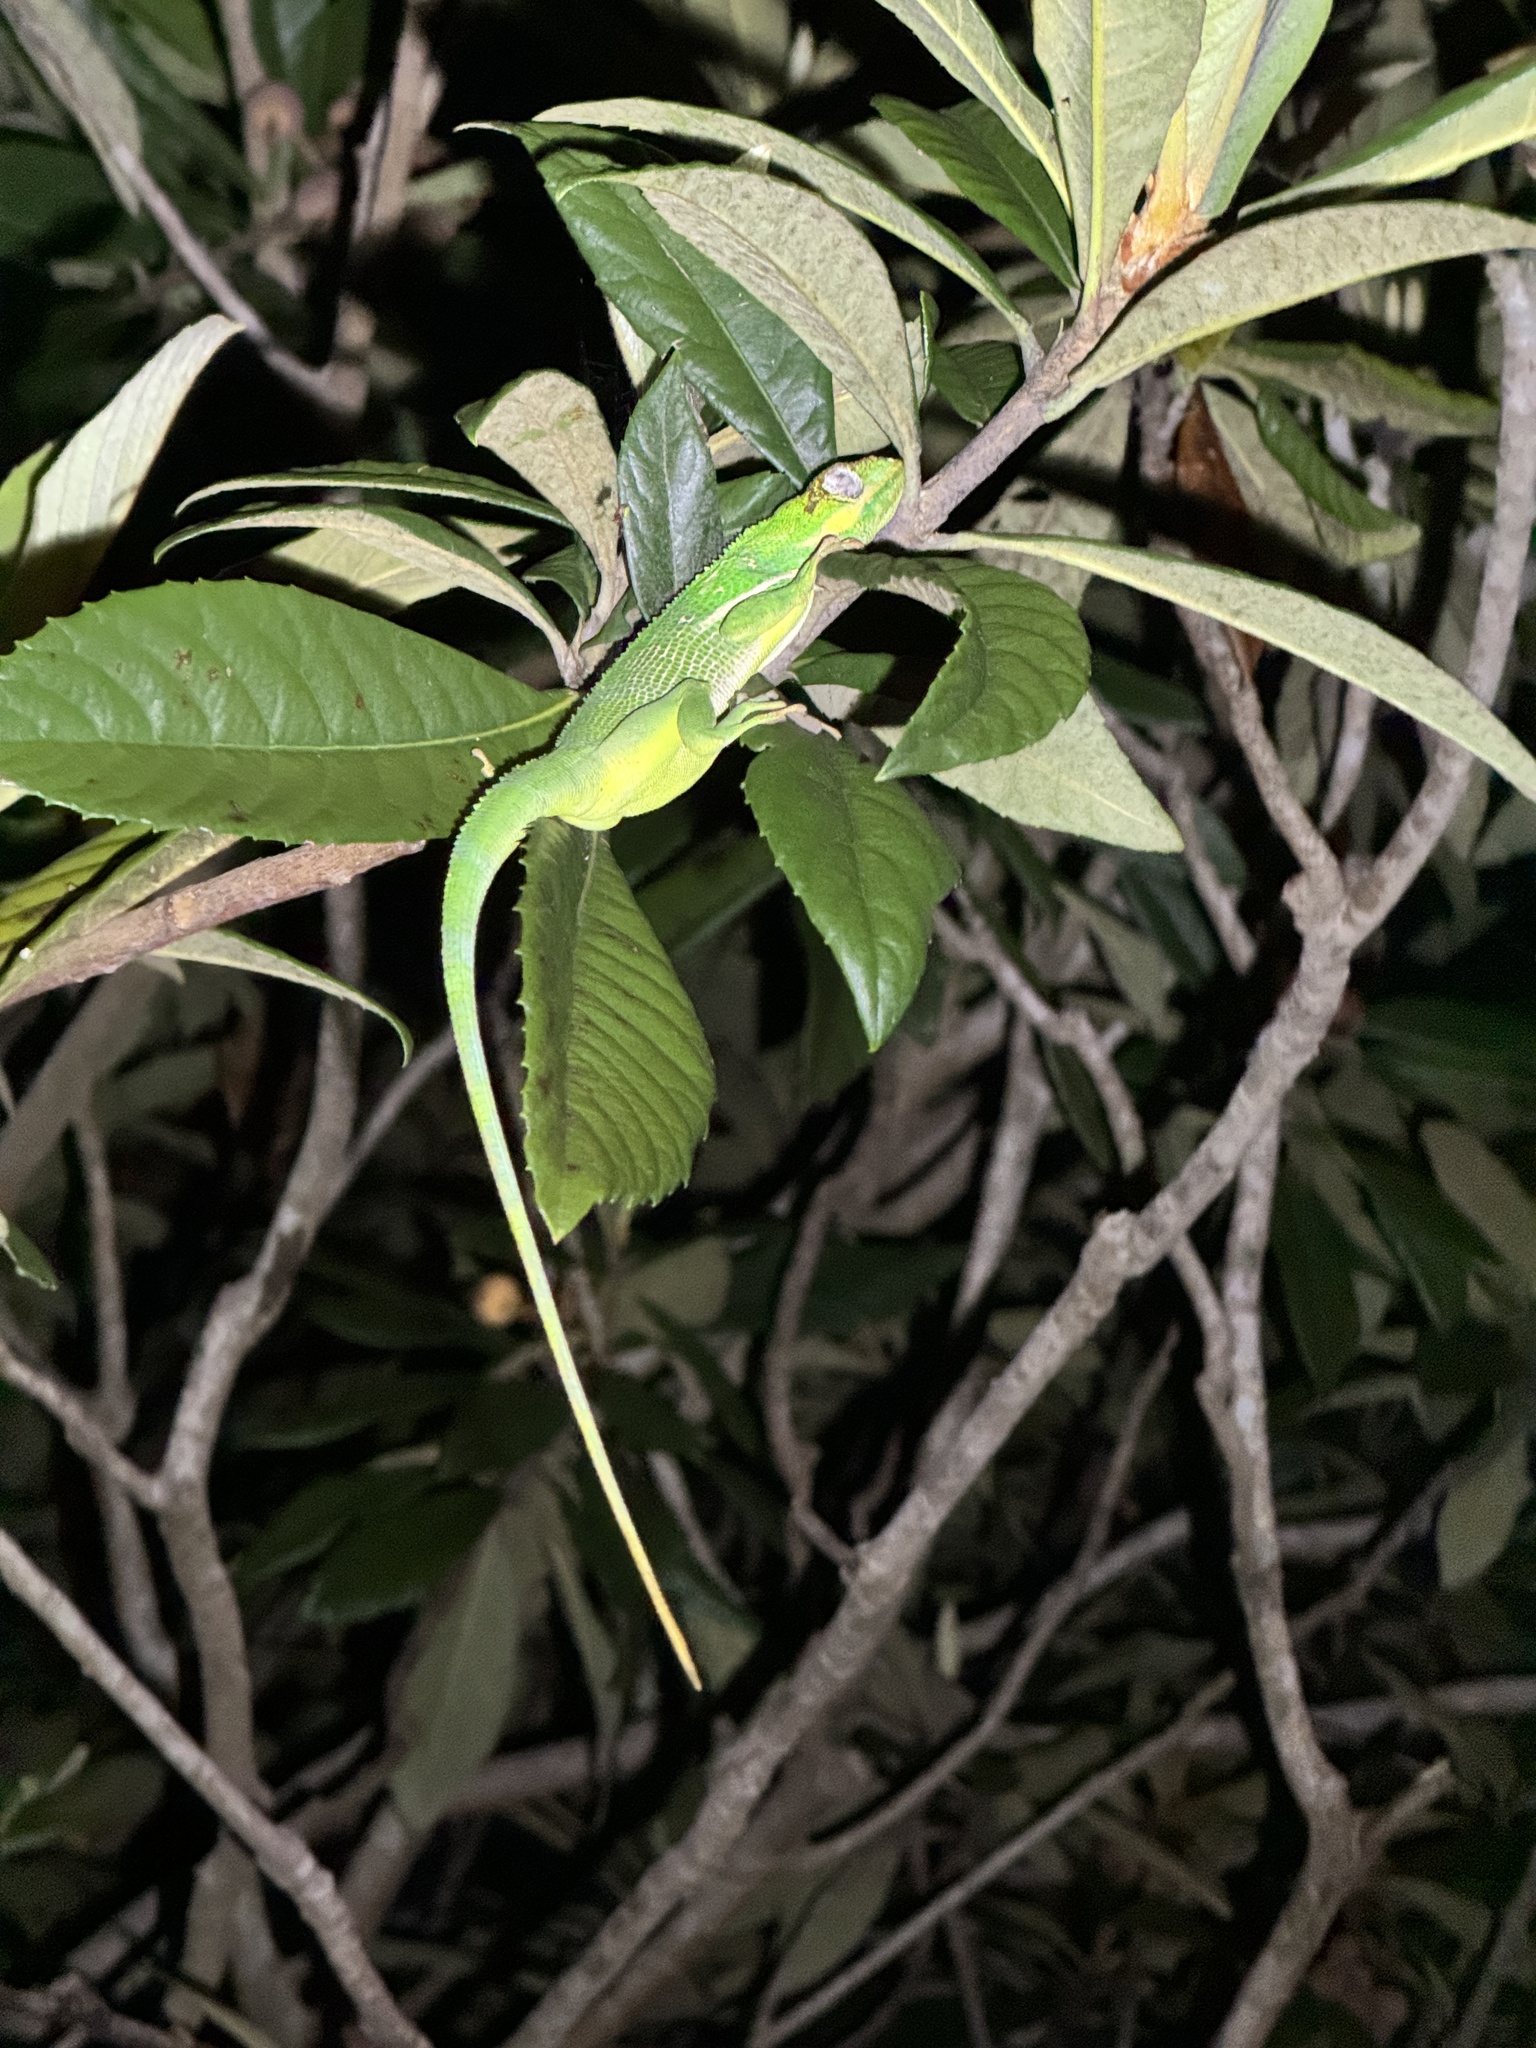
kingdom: Animalia
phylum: Chordata
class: Squamata
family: Dactyloidae
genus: Anolis
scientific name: Anolis equestris
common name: Knight anole
